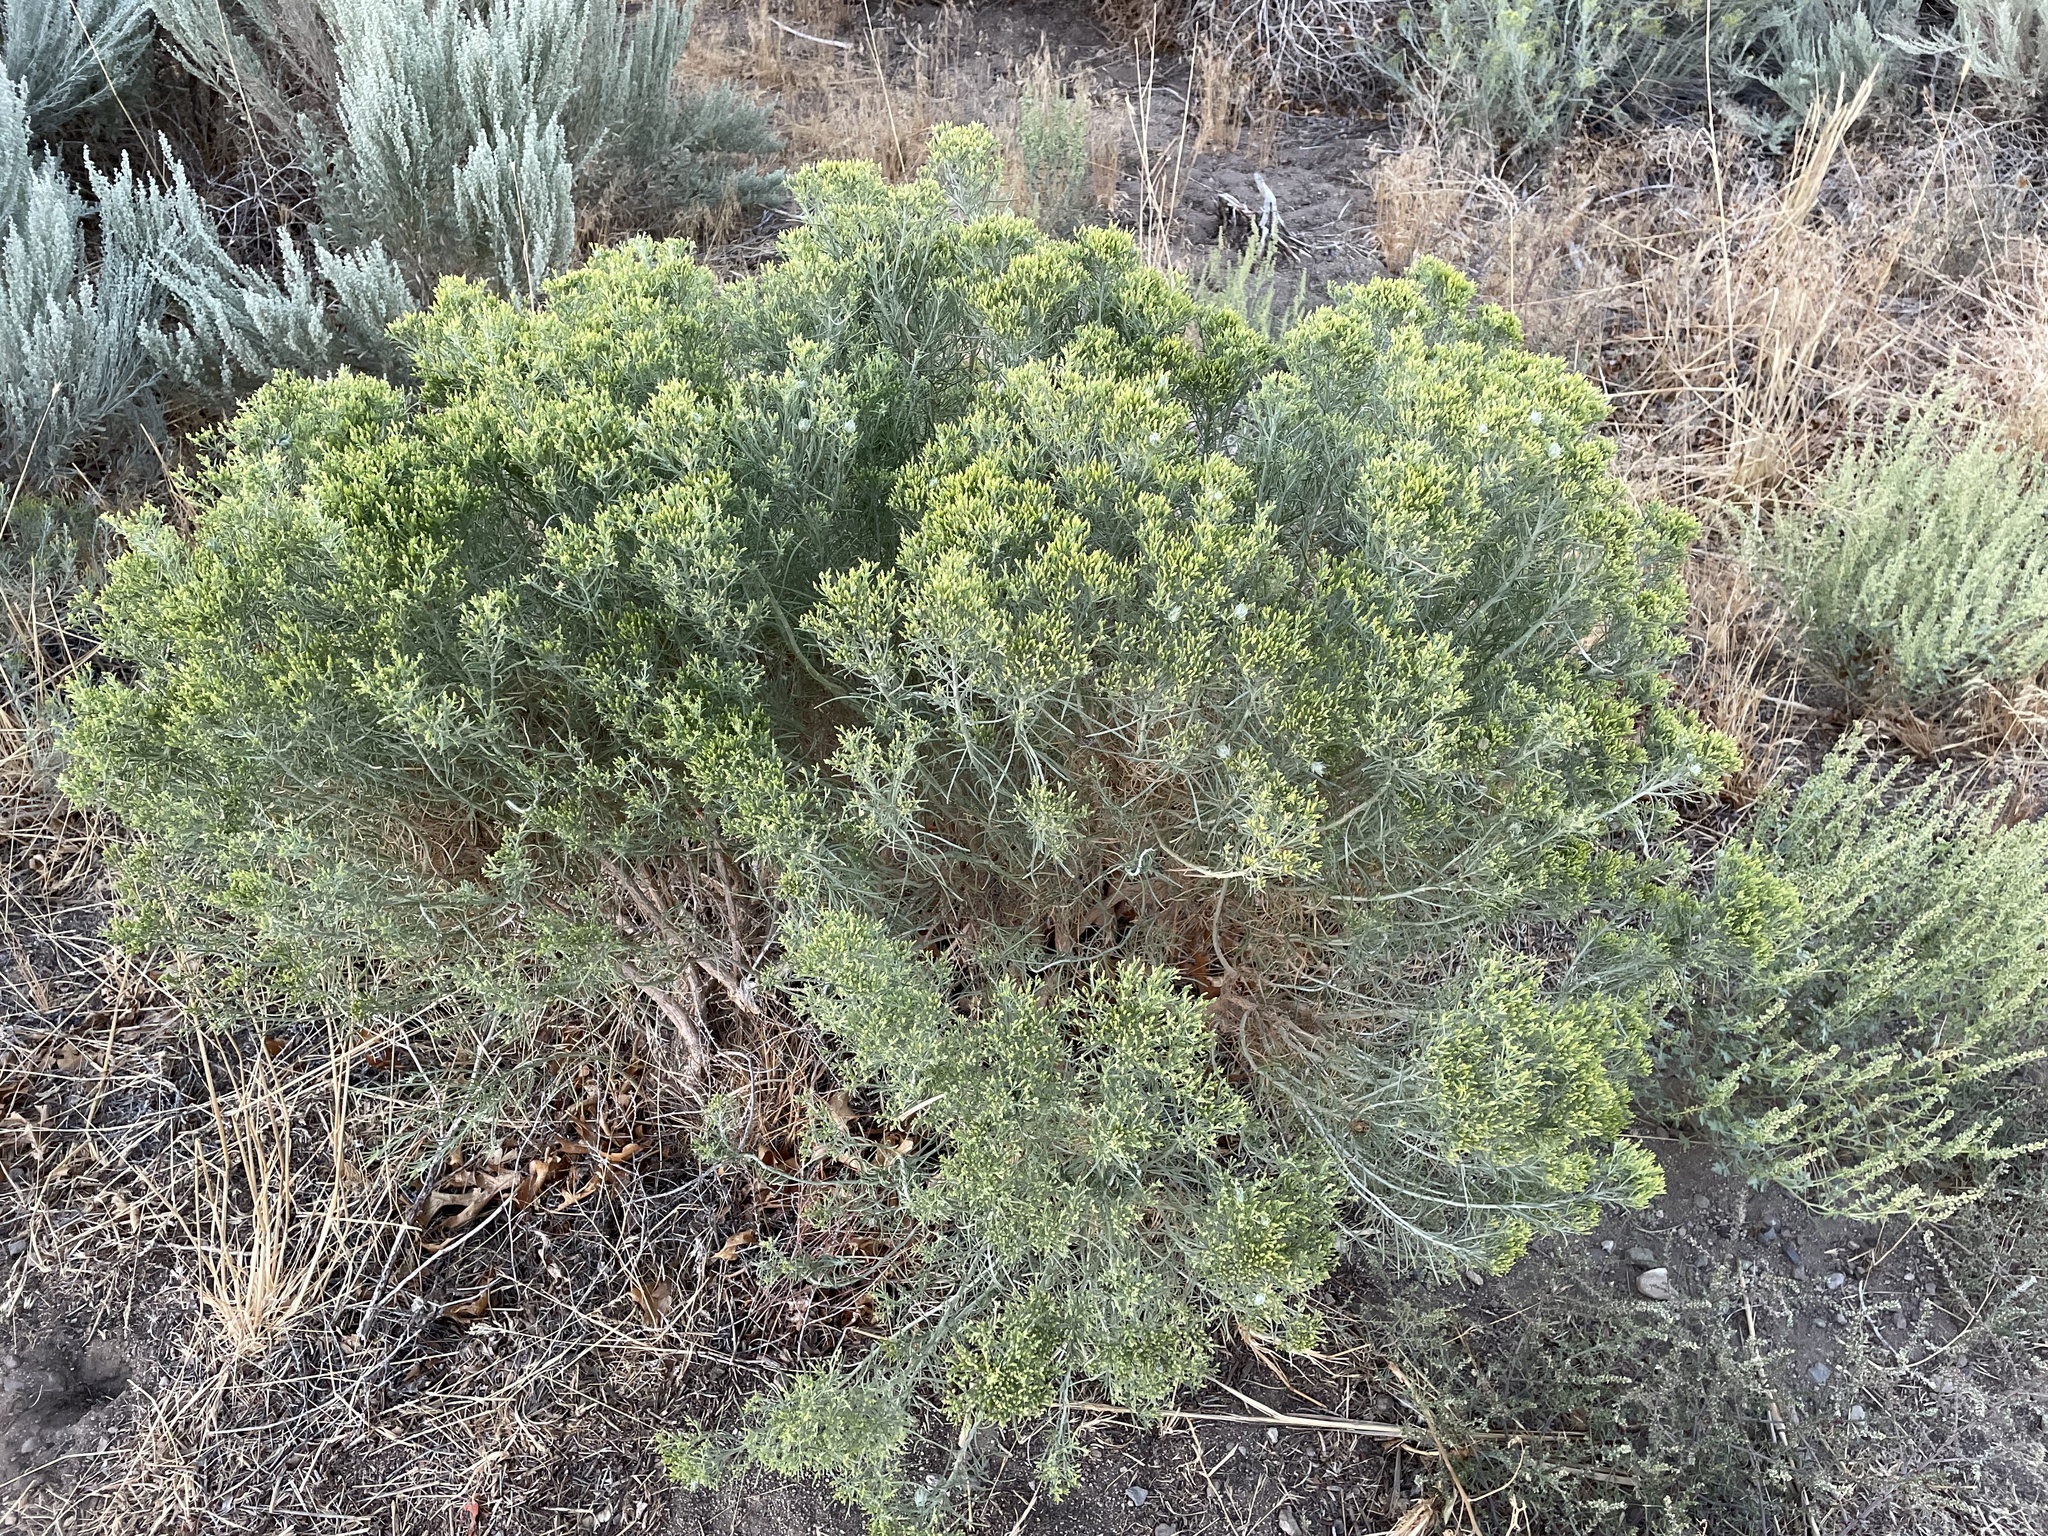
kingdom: Animalia
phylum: Arthropoda
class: Insecta
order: Diptera
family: Tephritidae
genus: Aciurina
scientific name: Aciurina bigeloviae
